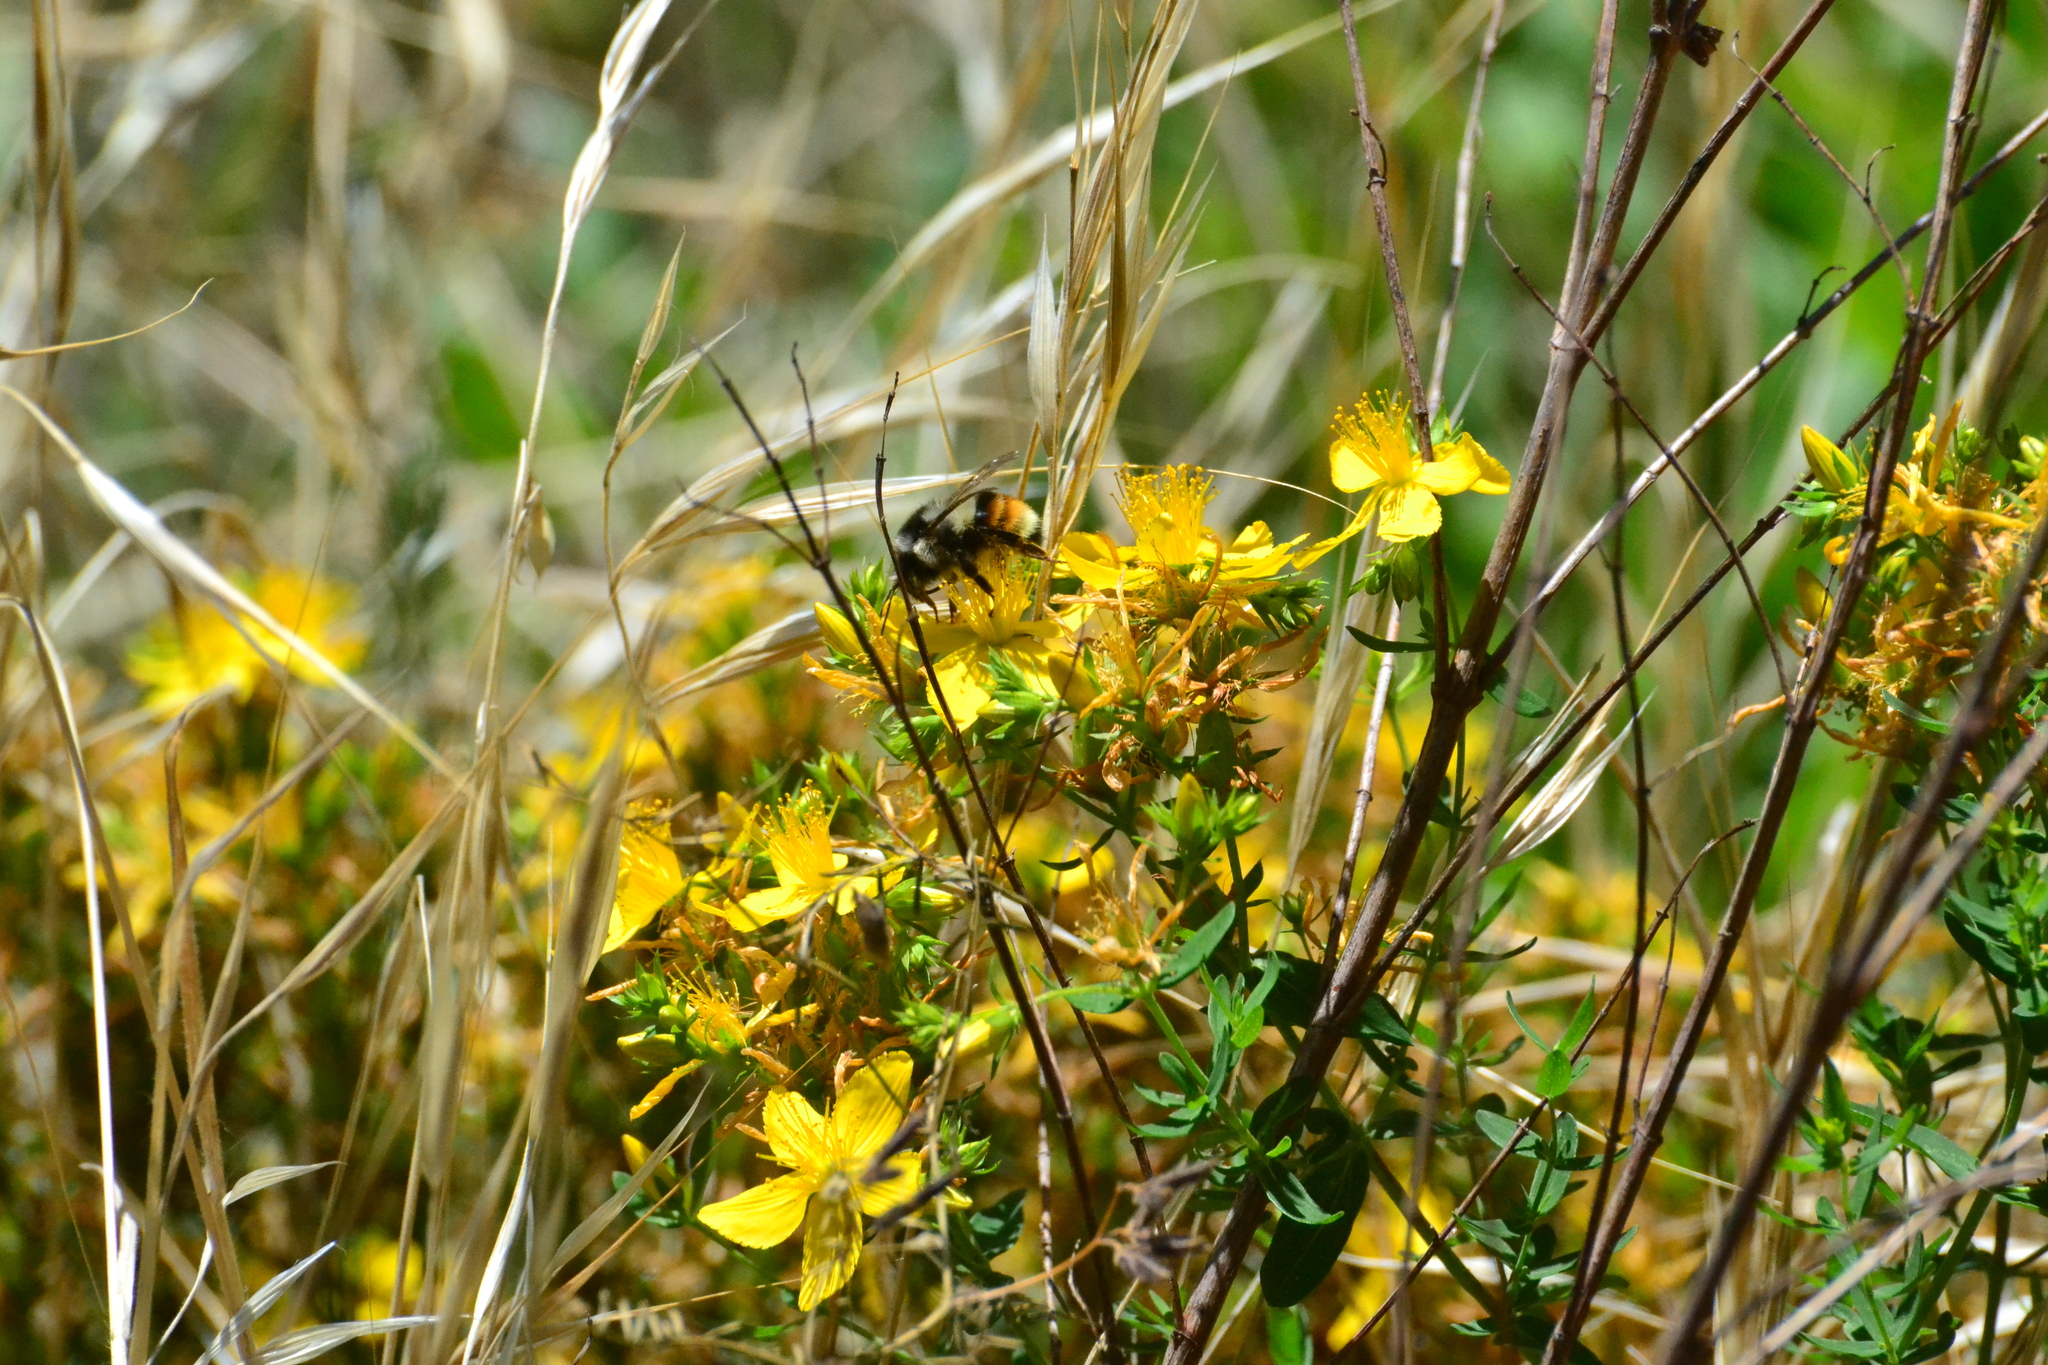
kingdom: Animalia
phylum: Arthropoda
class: Insecta
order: Hymenoptera
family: Apidae
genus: Bombus
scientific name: Bombus vancouverensis
